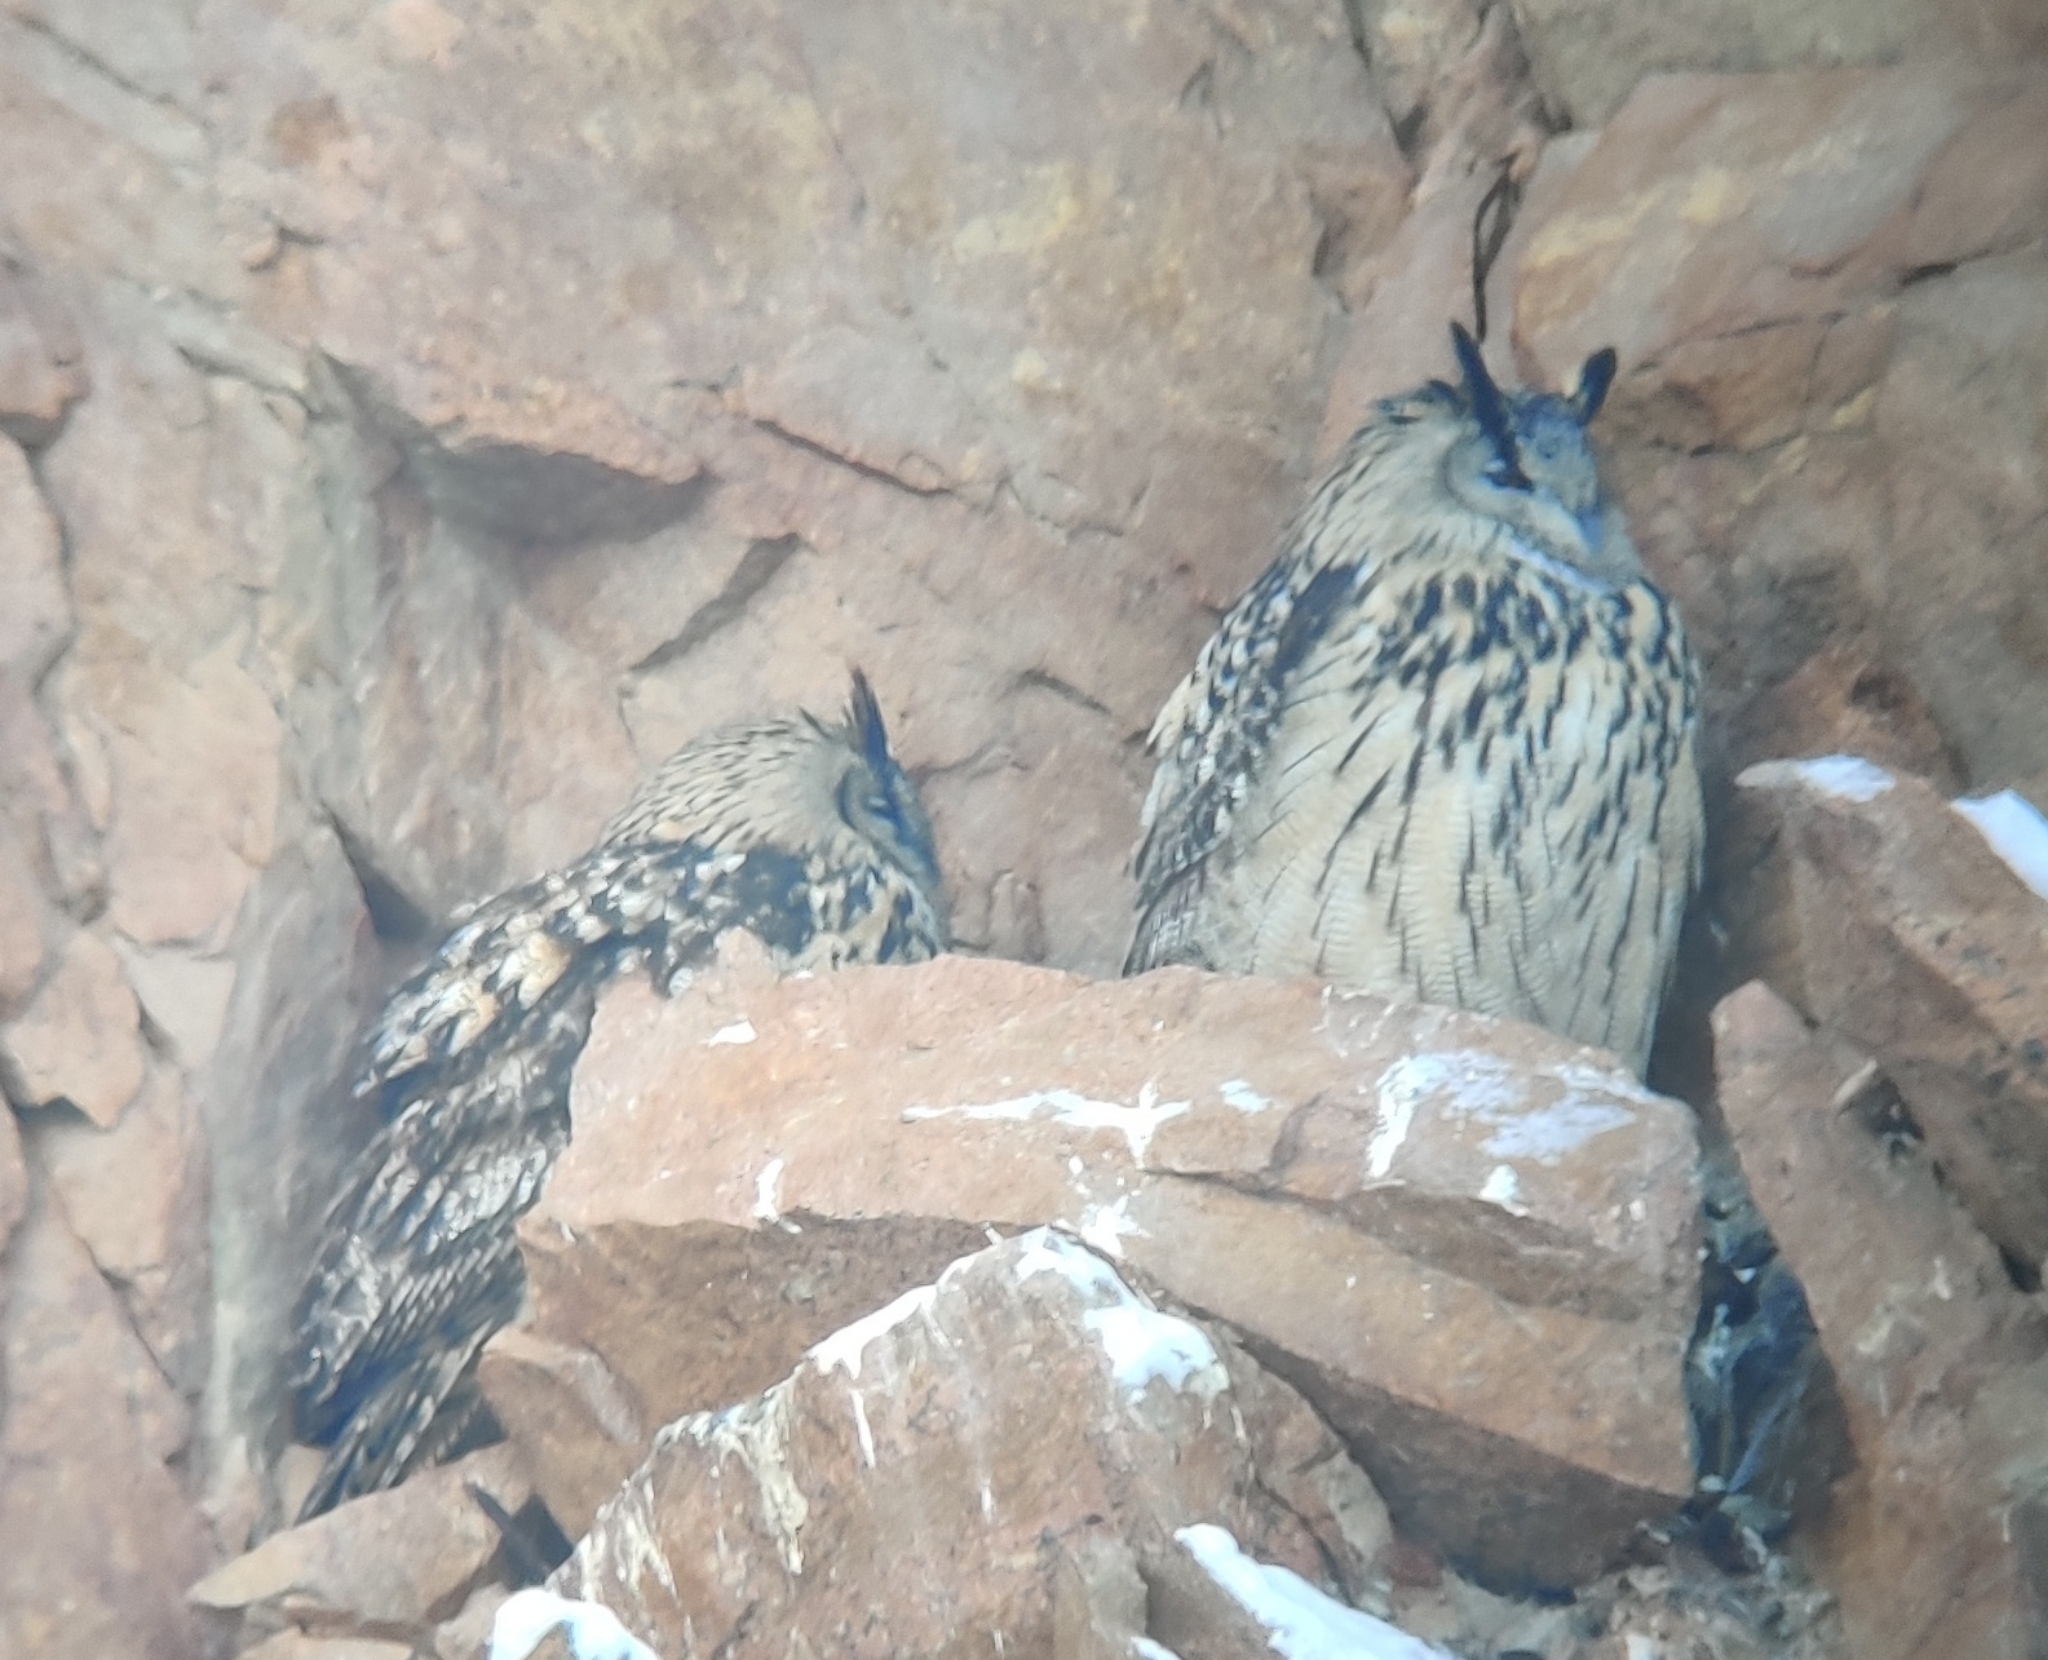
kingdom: Animalia
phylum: Chordata
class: Aves
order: Strigiformes
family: Strigidae
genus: Bubo
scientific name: Bubo bubo
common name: Eurasian eagle-owl
